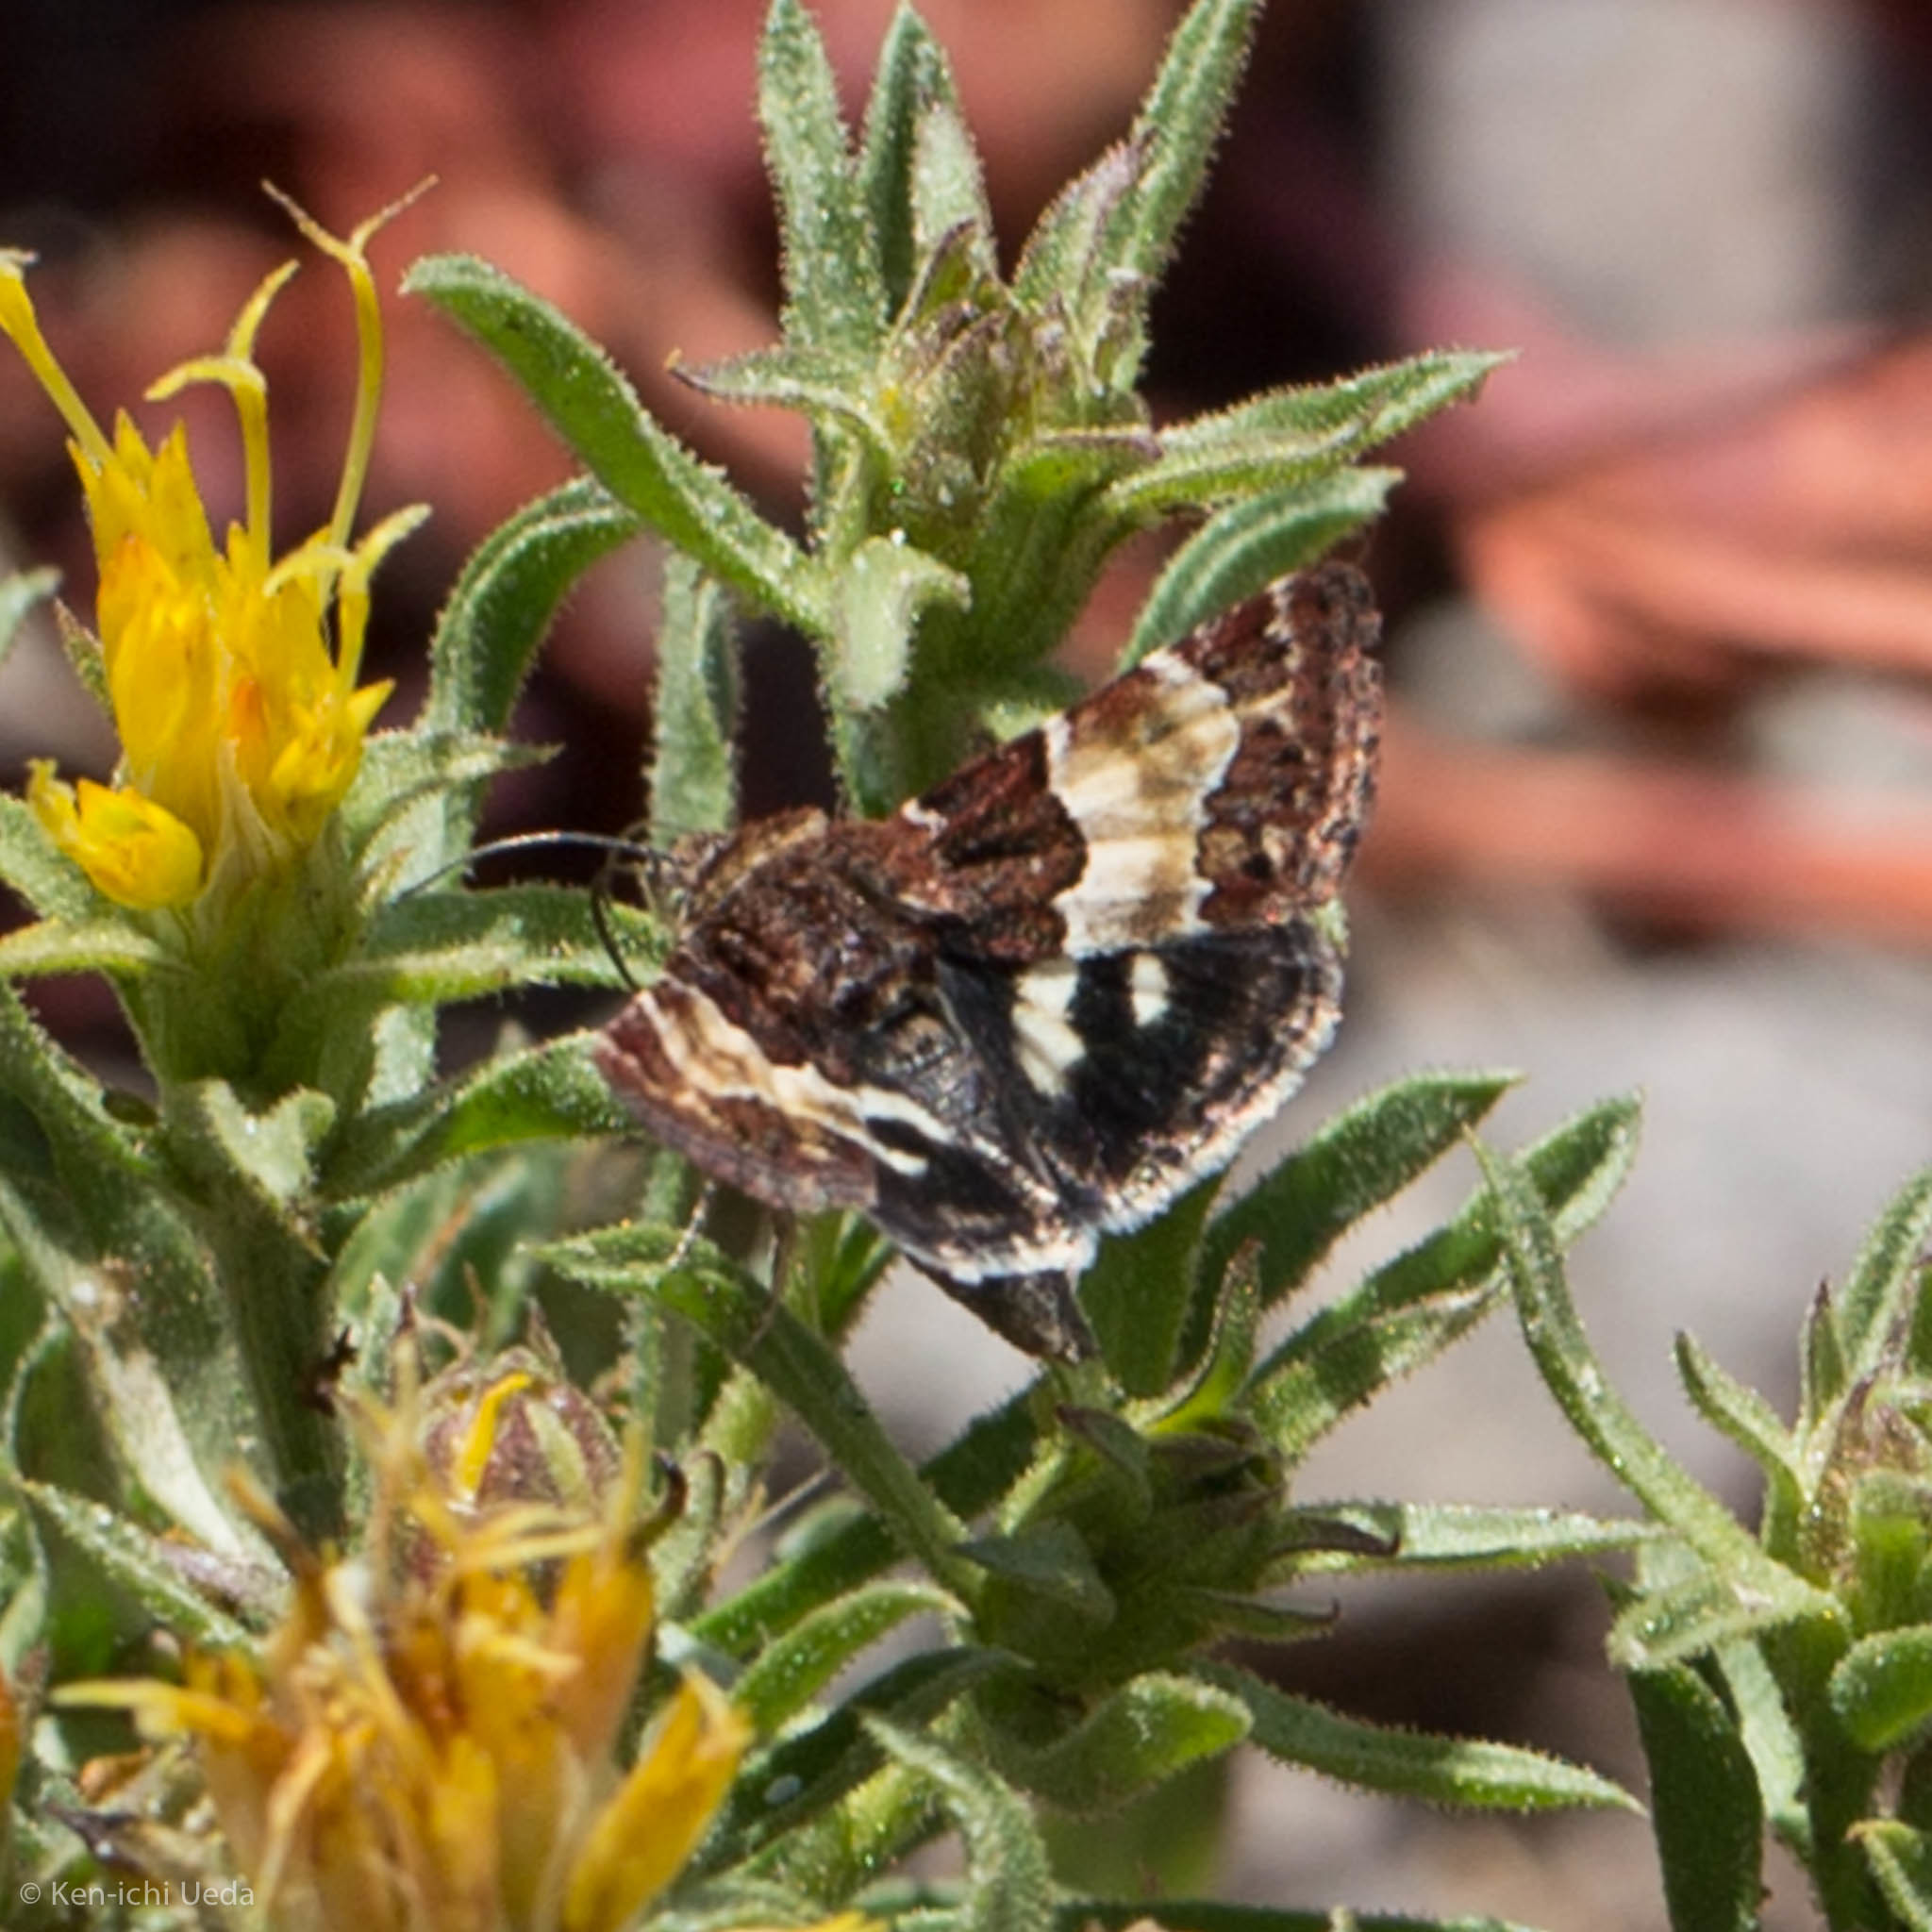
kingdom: Animalia
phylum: Arthropoda
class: Insecta
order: Lepidoptera
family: Noctuidae
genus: Schinia
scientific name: Schinia vacciniae
